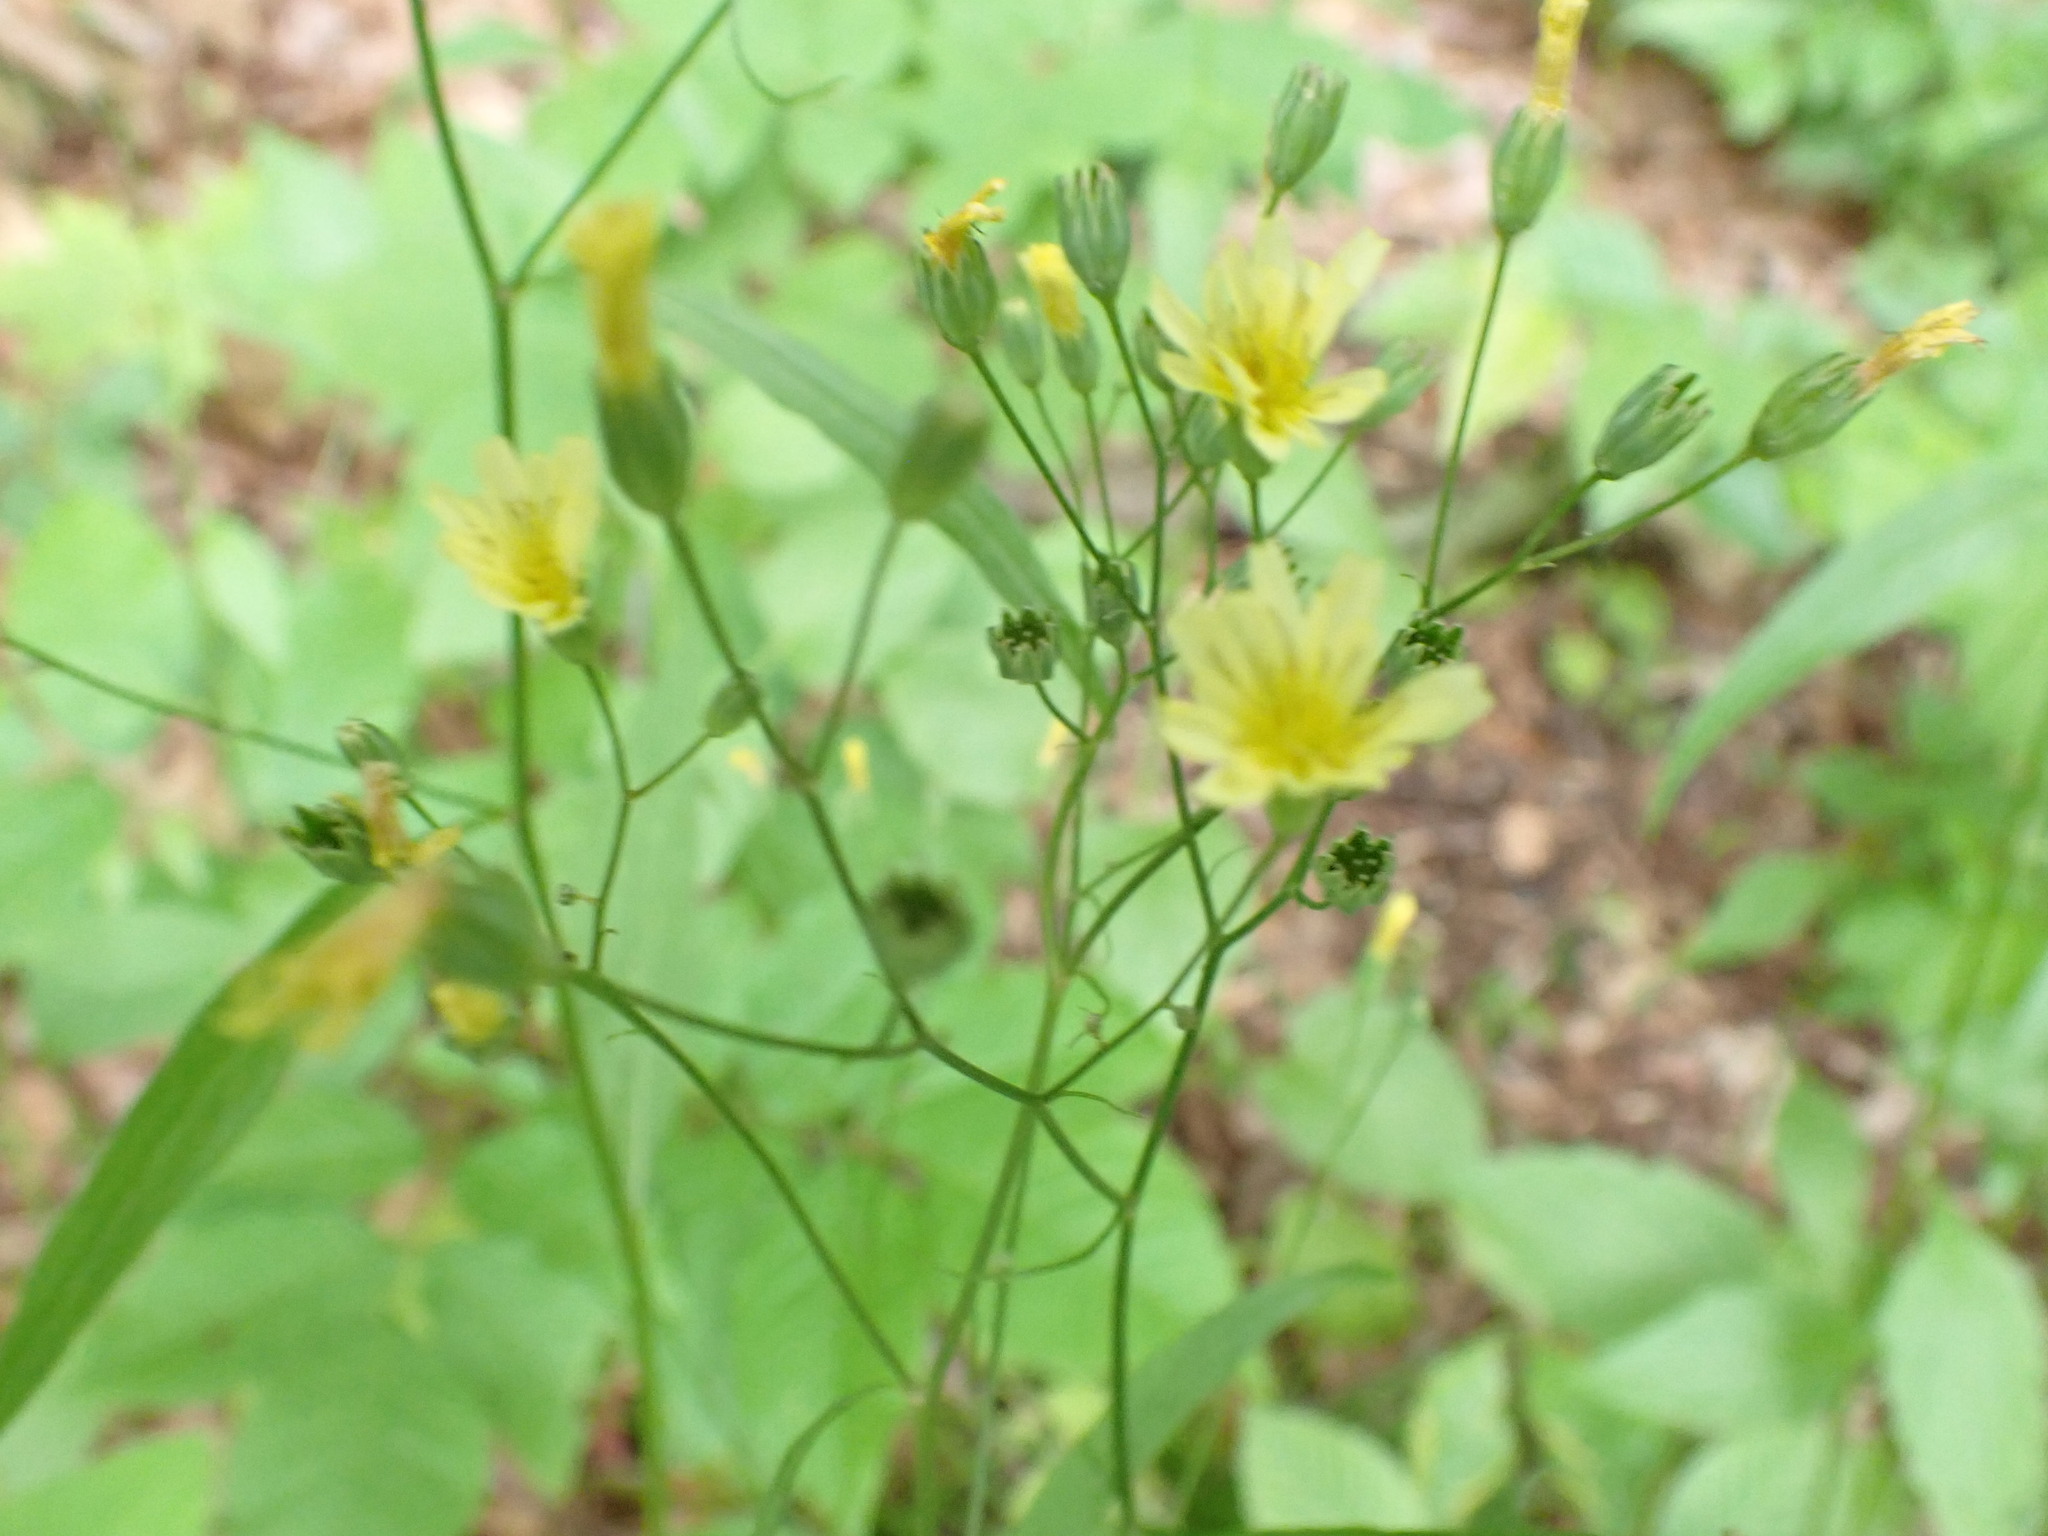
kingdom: Plantae
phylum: Tracheophyta
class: Magnoliopsida
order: Asterales
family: Asteraceae
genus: Lapsana
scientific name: Lapsana communis
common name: Nipplewort
